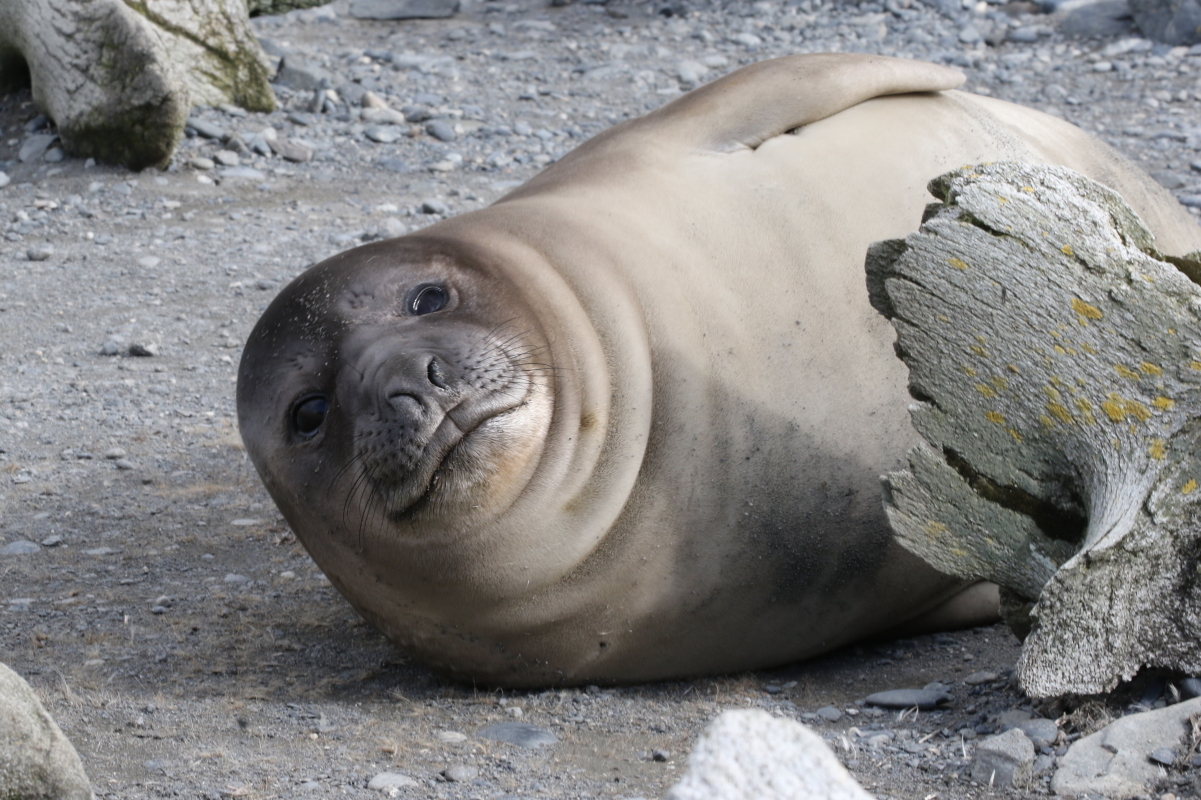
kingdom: Animalia
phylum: Chordata
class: Mammalia
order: Carnivora
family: Phocidae
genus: Mirounga
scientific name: Mirounga leonina
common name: Southern elephant seal
